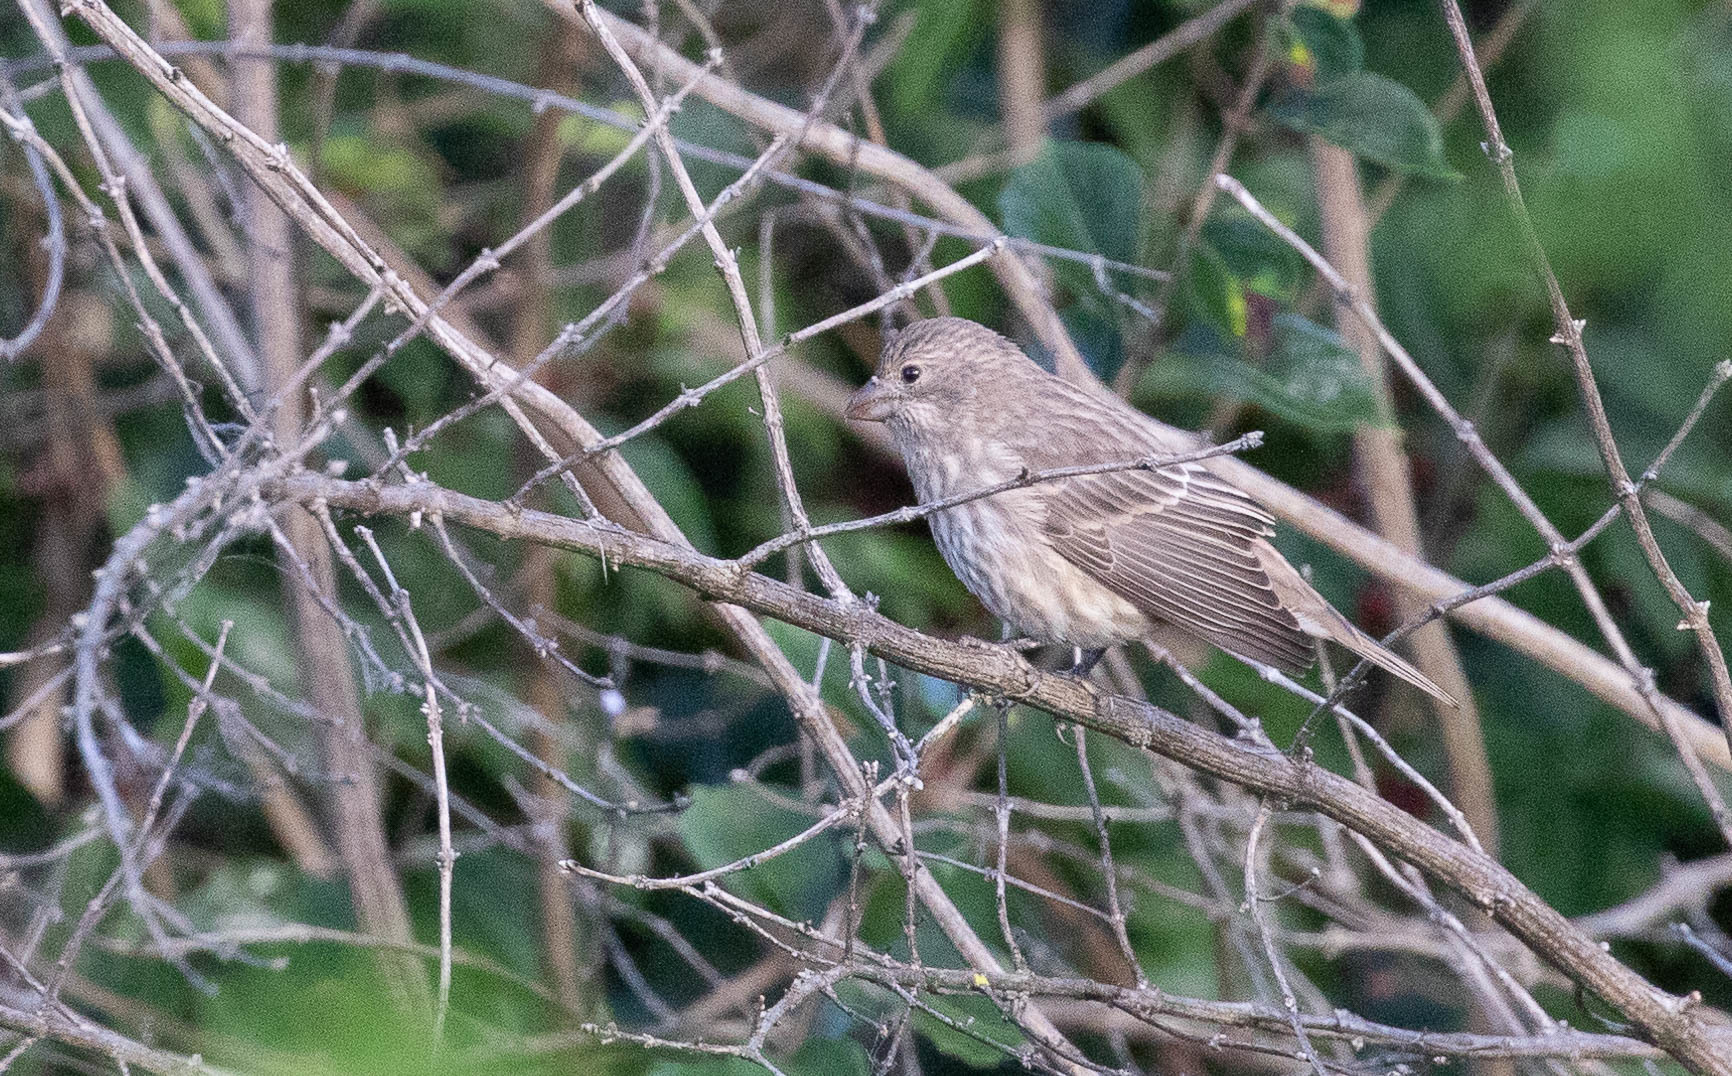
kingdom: Animalia
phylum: Chordata
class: Aves
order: Passeriformes
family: Fringillidae
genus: Haemorhous
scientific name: Haemorhous mexicanus
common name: House finch
